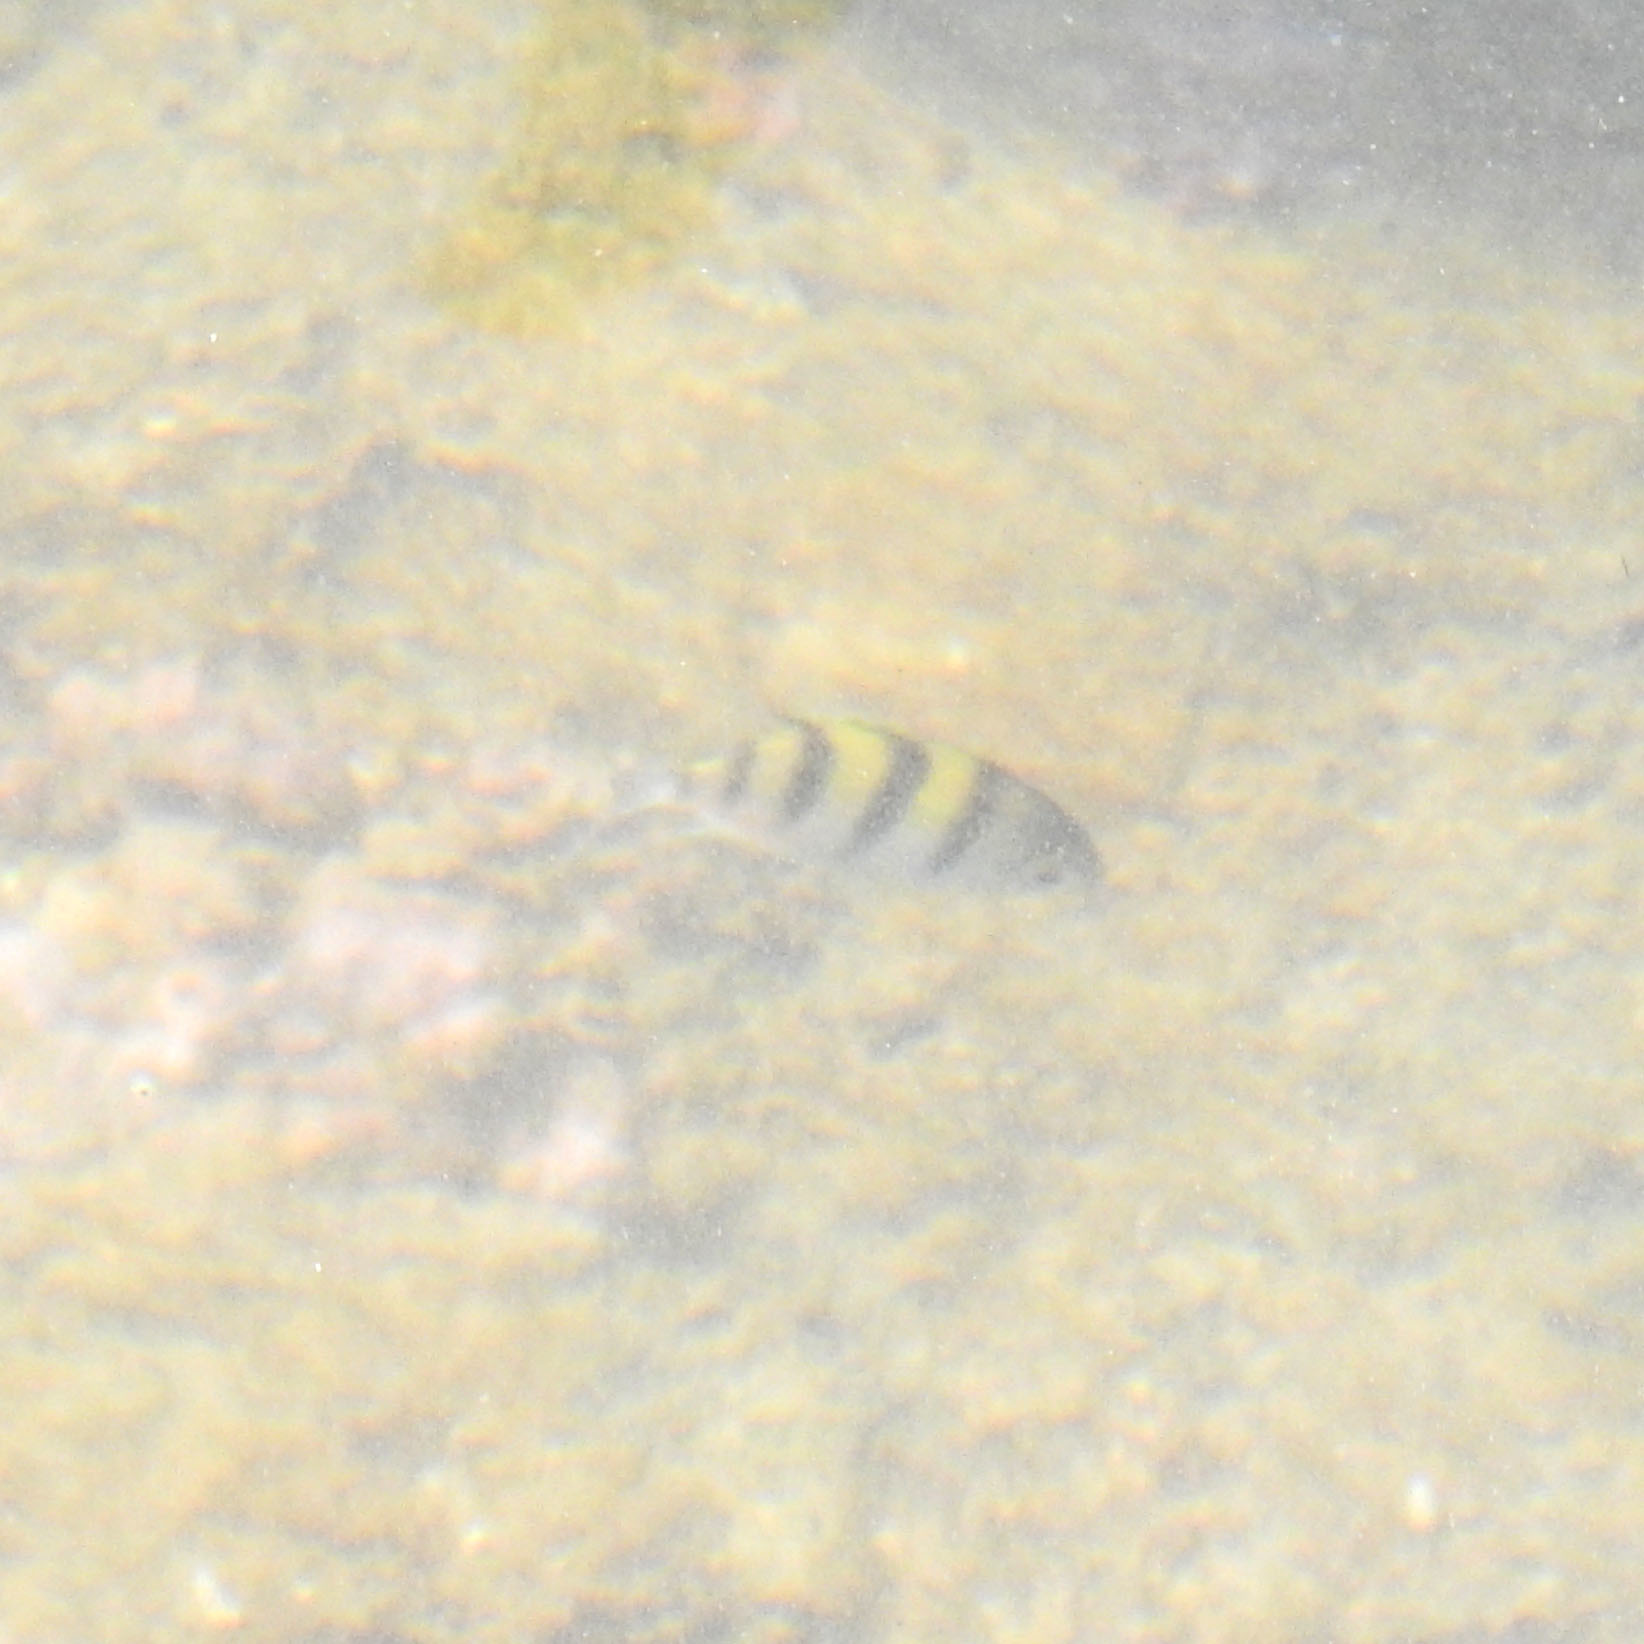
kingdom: Animalia
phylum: Chordata
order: Perciformes
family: Pomacentridae
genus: Abudefduf
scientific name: Abudefduf vaigiensis
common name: Indo-pacific sergeant
